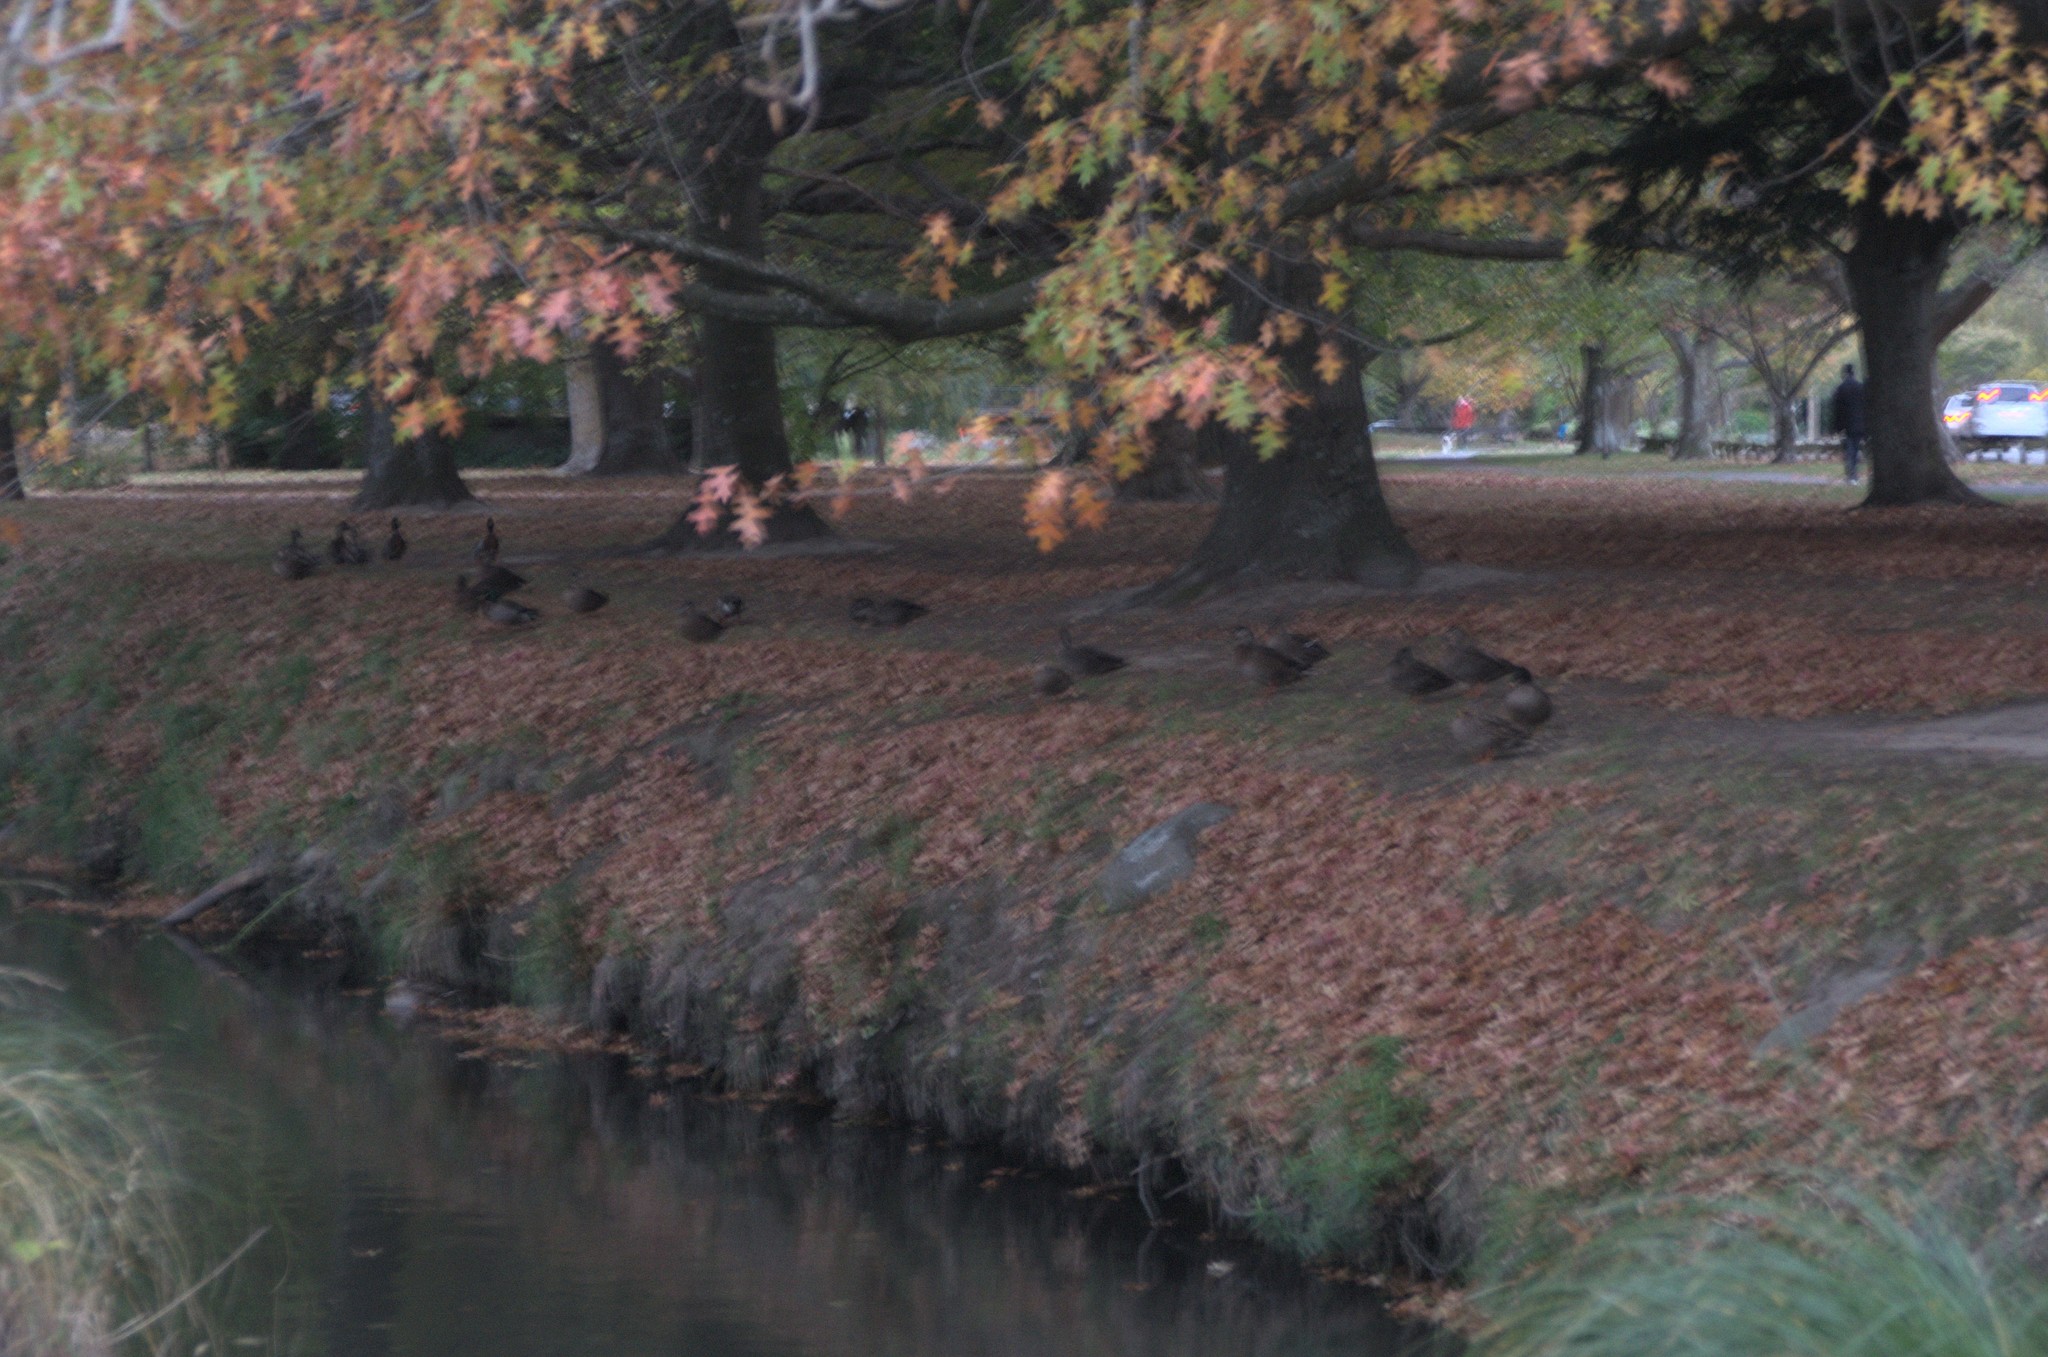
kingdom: Animalia
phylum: Chordata
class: Aves
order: Anseriformes
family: Anatidae
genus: Anas
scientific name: Anas platyrhynchos
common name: Mallard
